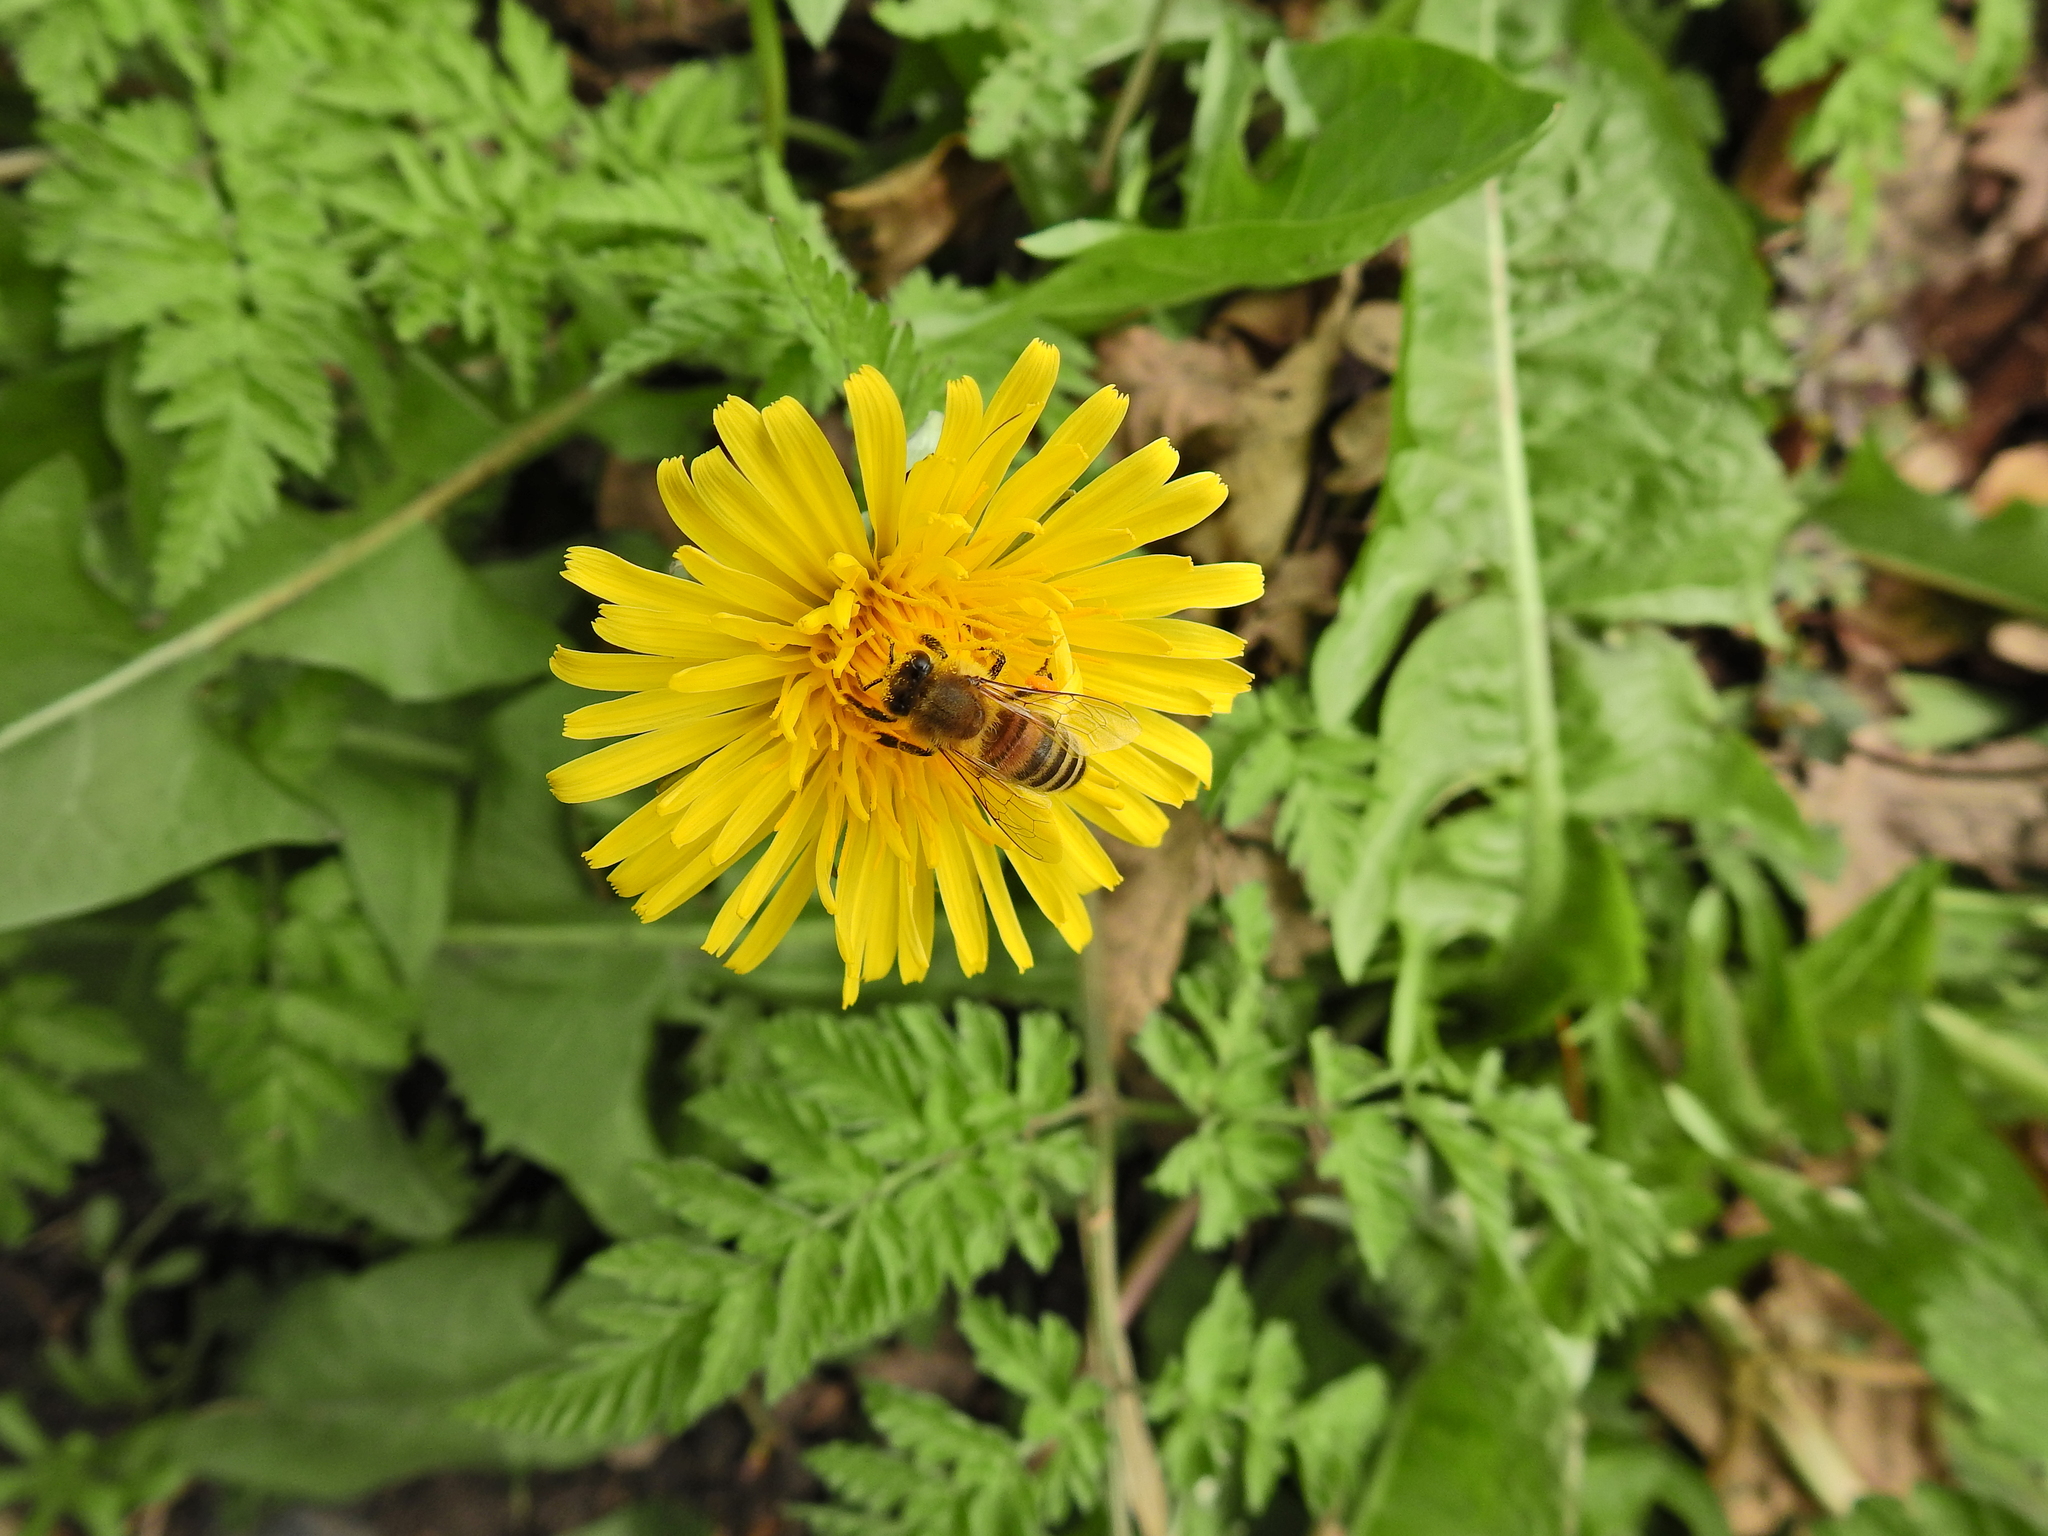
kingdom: Animalia
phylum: Arthropoda
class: Insecta
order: Hymenoptera
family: Apidae
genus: Apis
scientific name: Apis mellifera
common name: Honey bee
